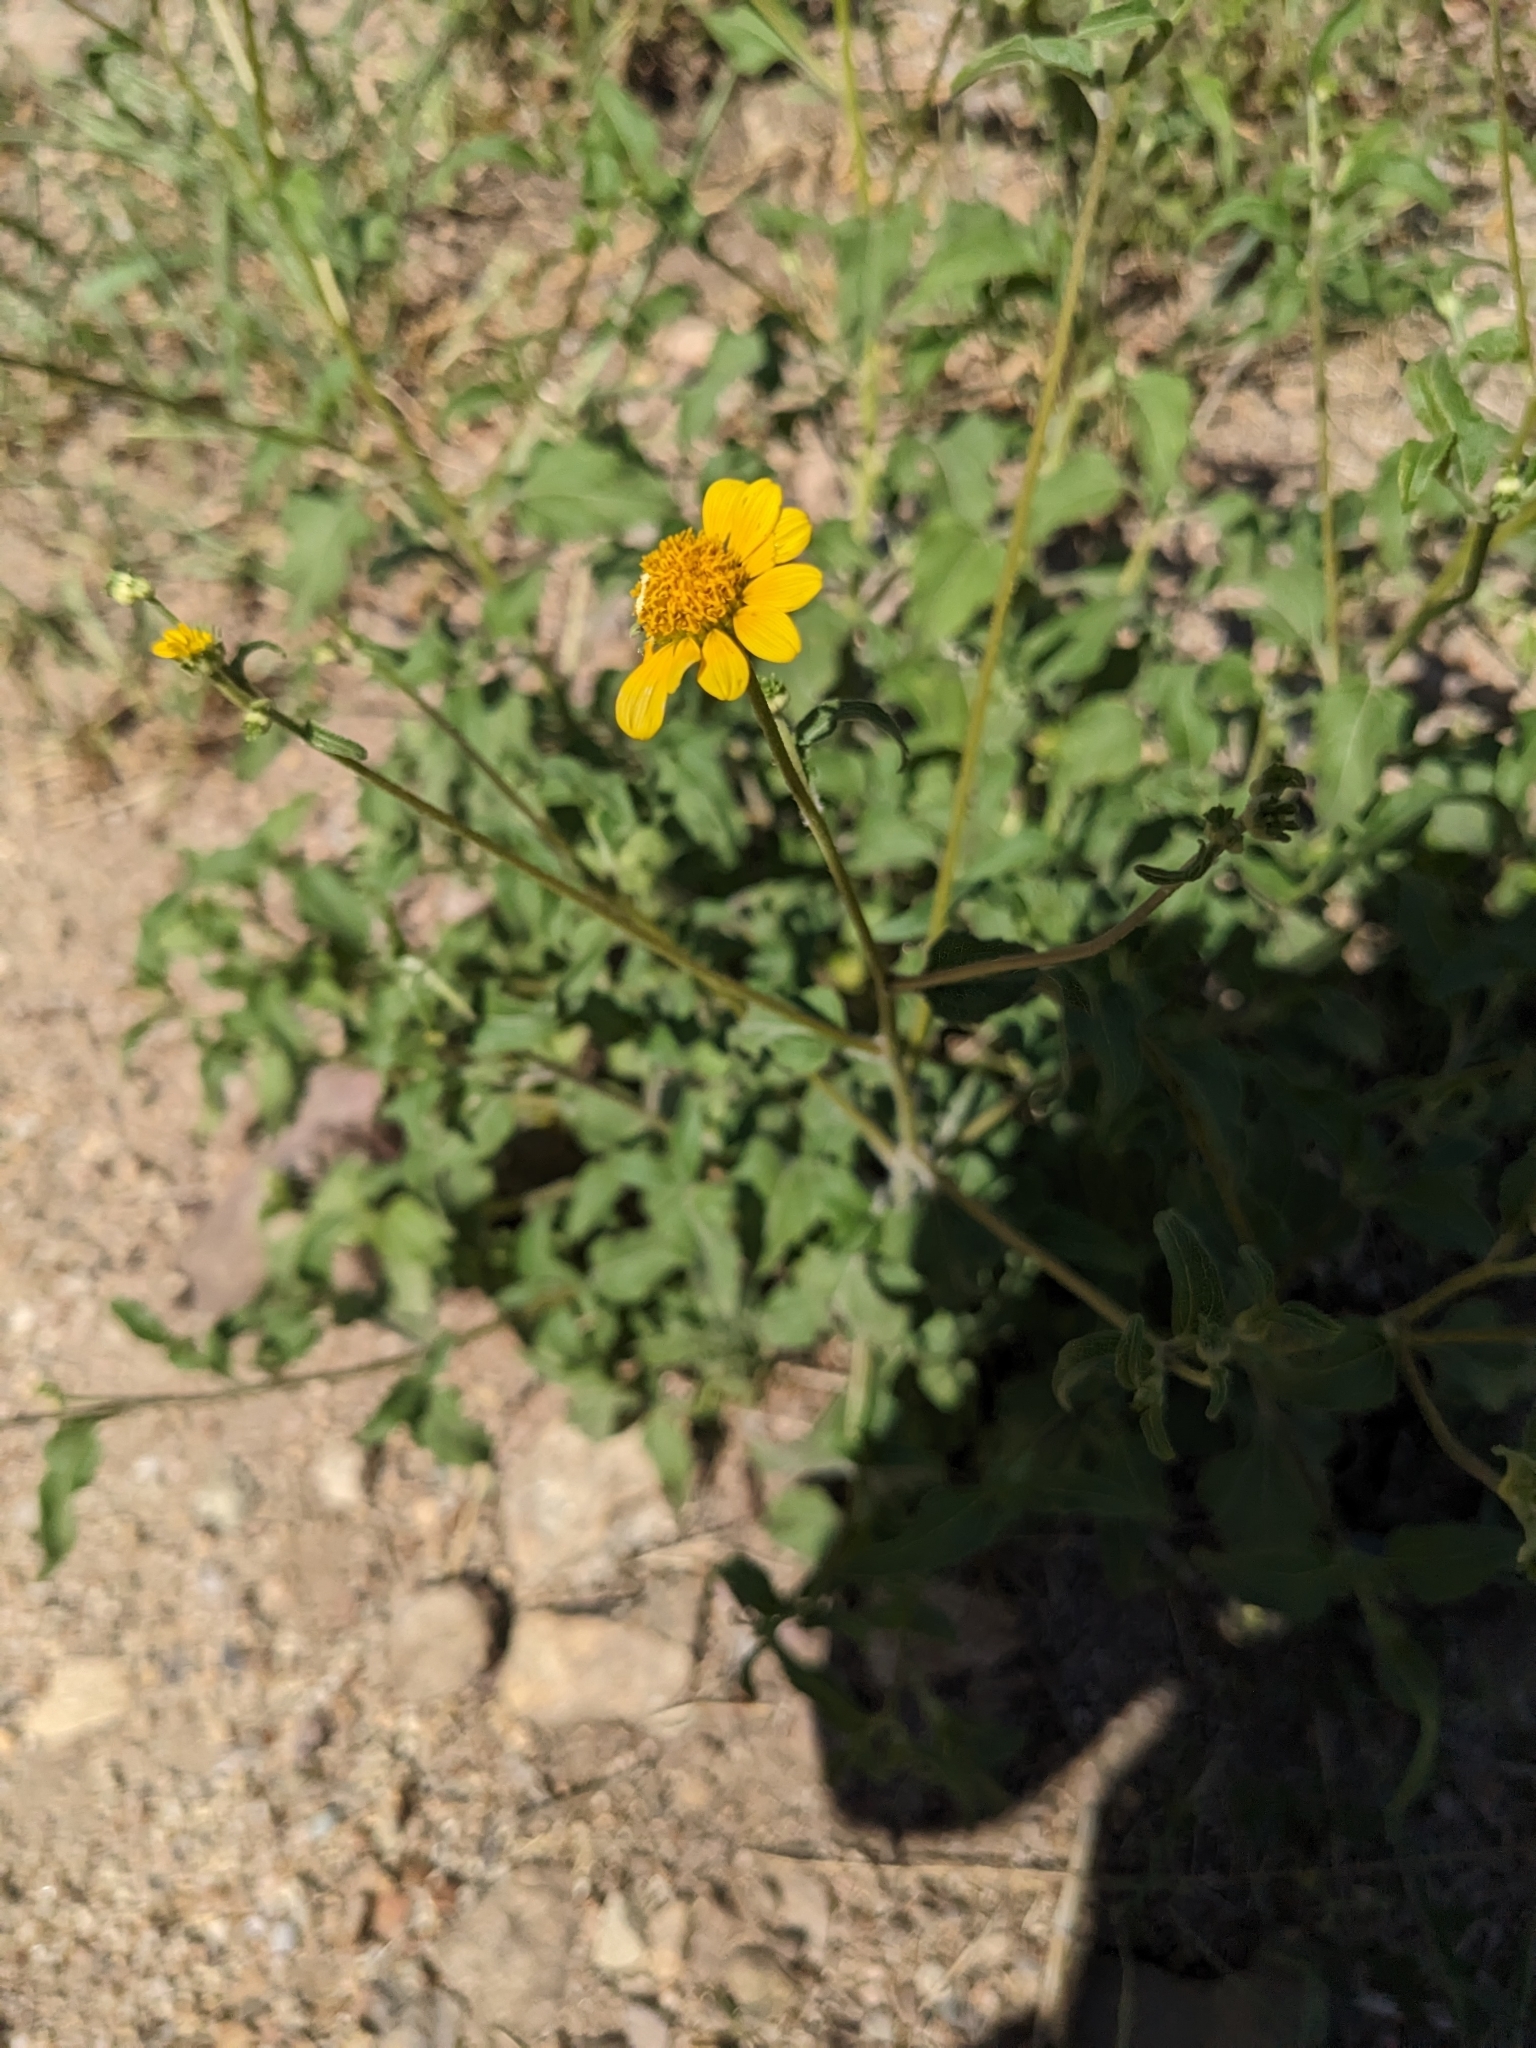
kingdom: Plantae
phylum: Tracheophyta
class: Magnoliopsida
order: Asterales
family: Asteraceae
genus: Viguiera
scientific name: Viguiera dentata
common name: Toothleaf
